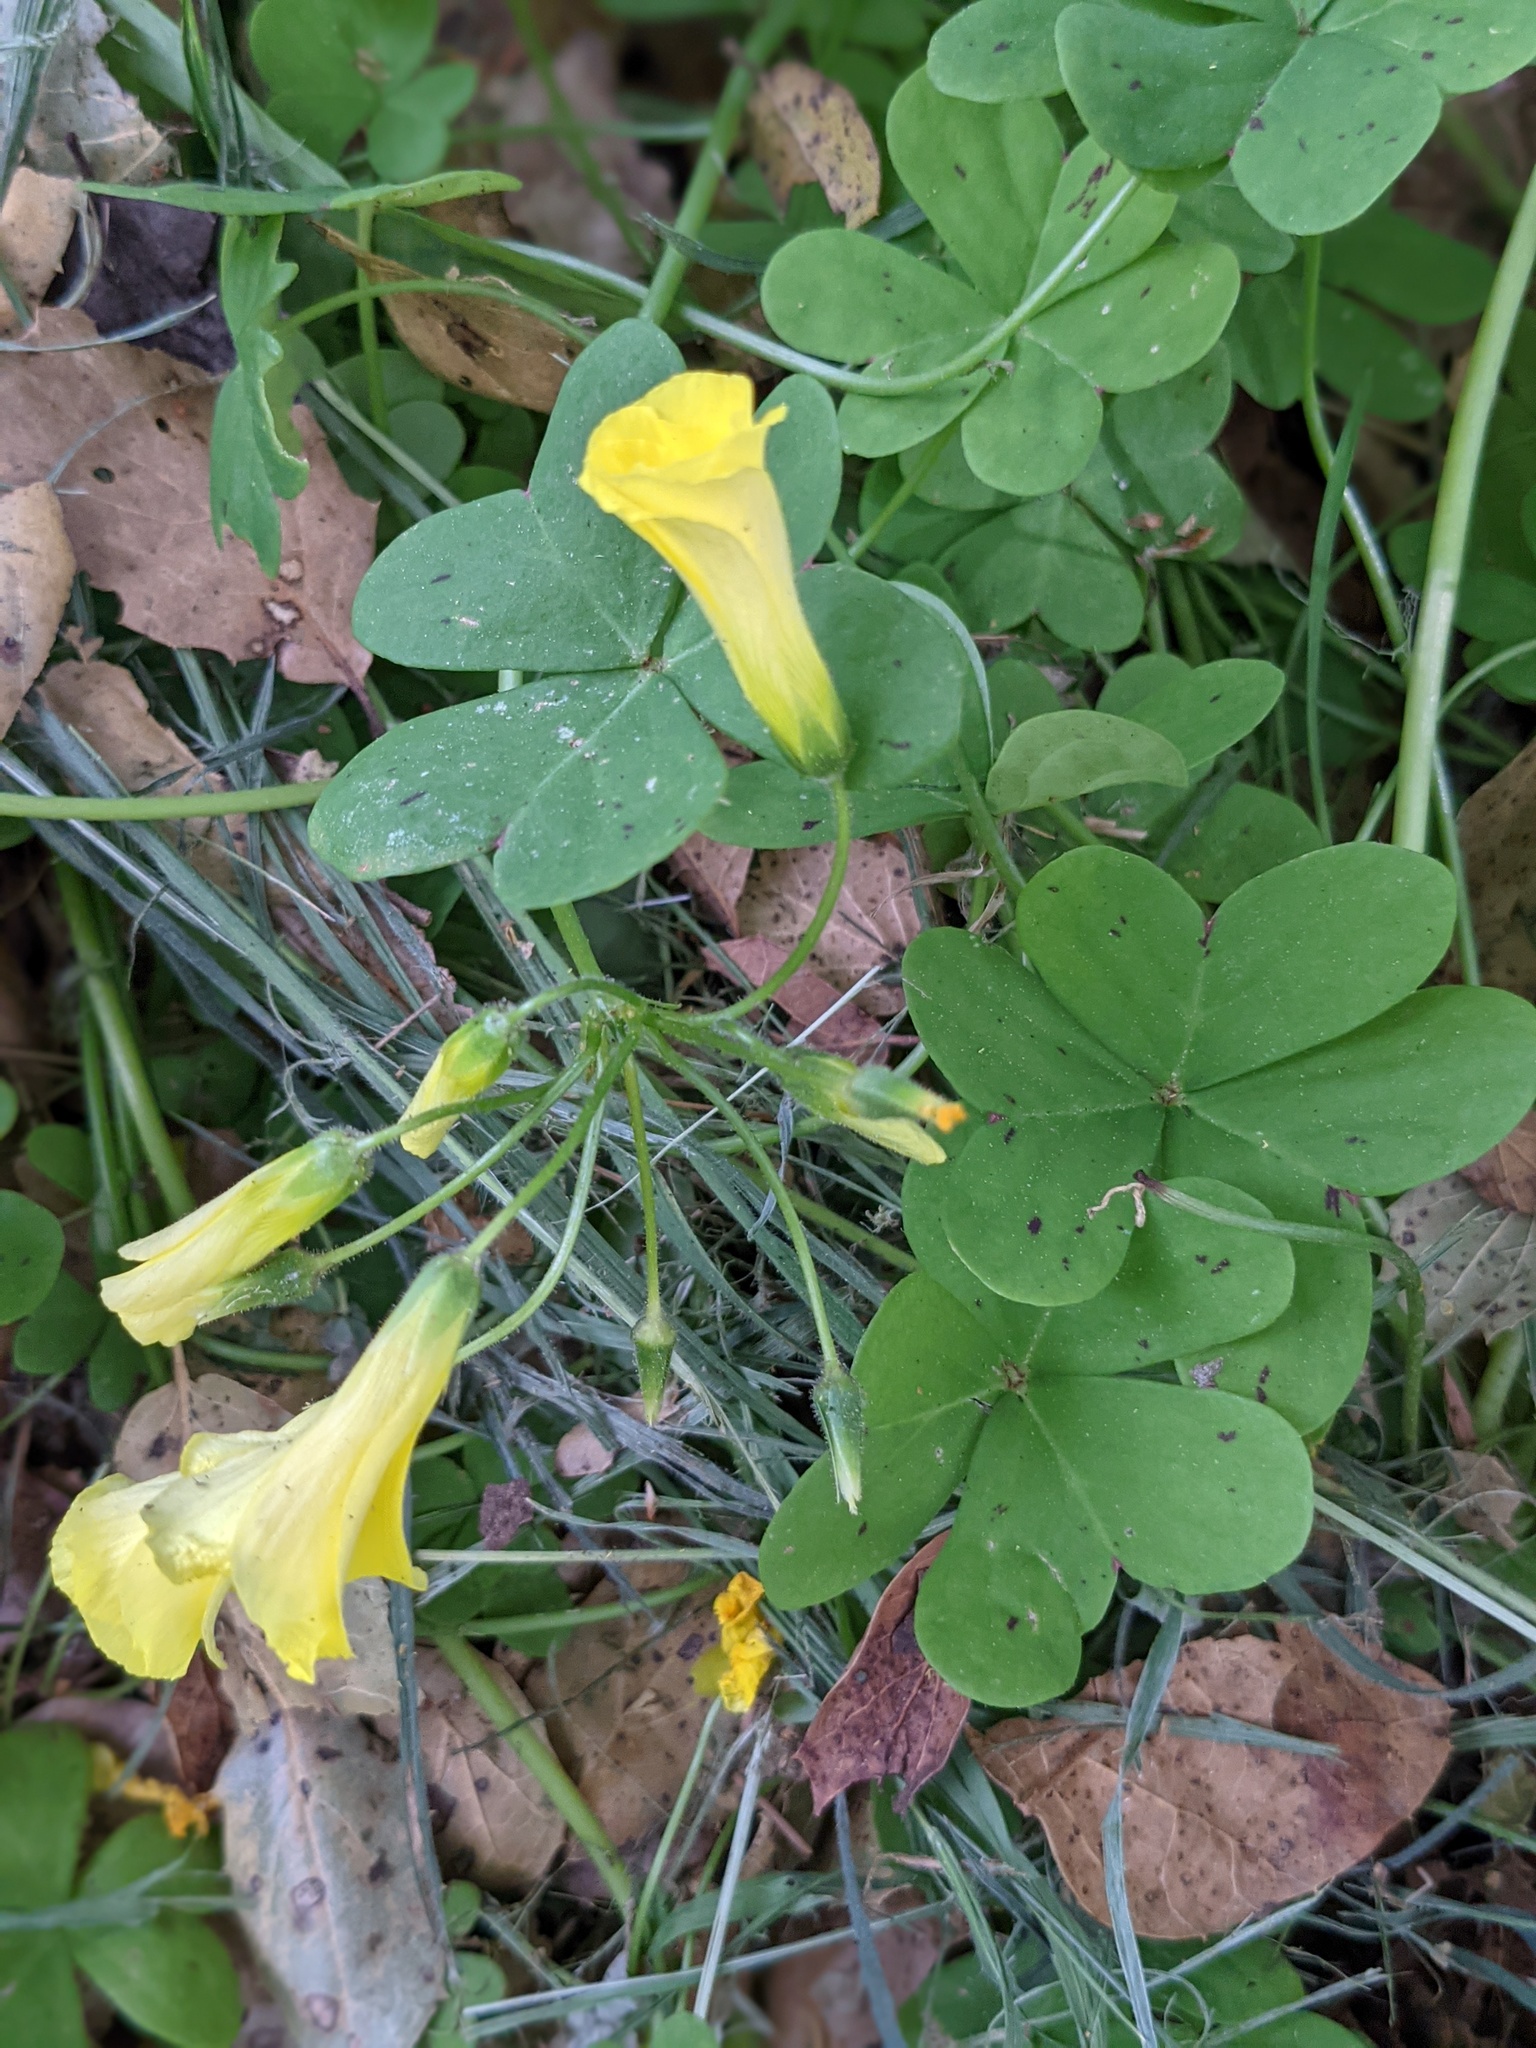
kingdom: Plantae
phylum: Tracheophyta
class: Magnoliopsida
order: Oxalidales
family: Oxalidaceae
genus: Oxalis
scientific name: Oxalis pes-caprae
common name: Bermuda-buttercup
